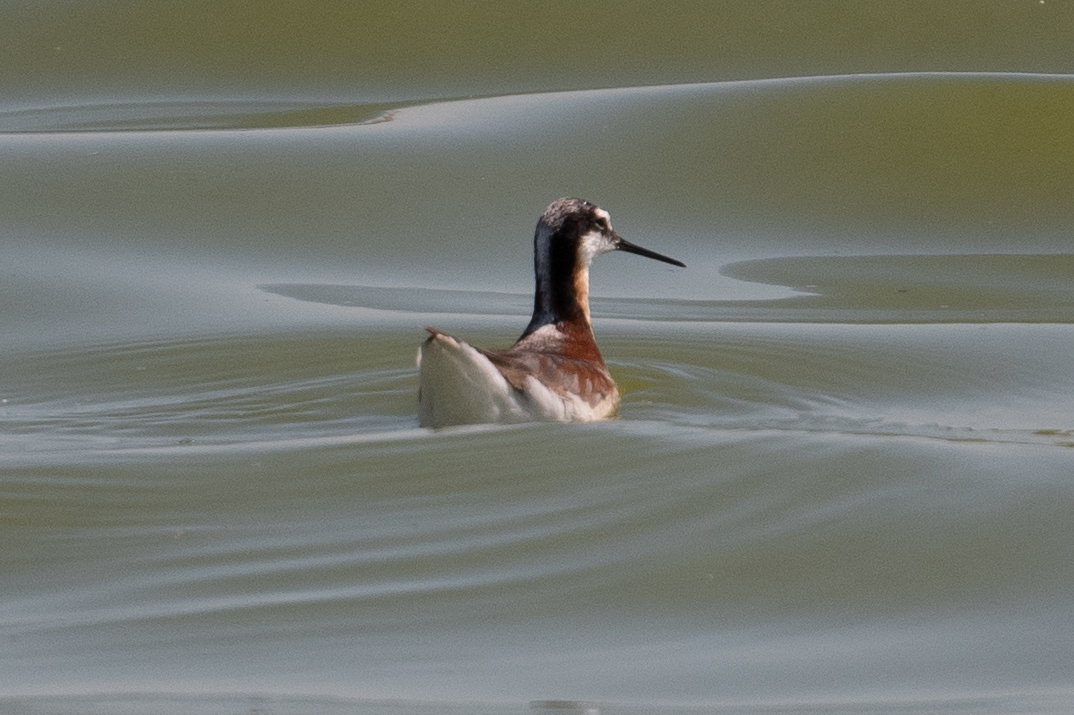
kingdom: Animalia
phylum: Chordata
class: Aves
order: Charadriiformes
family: Scolopacidae
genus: Phalaropus
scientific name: Phalaropus tricolor
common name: Wilson's phalarope
